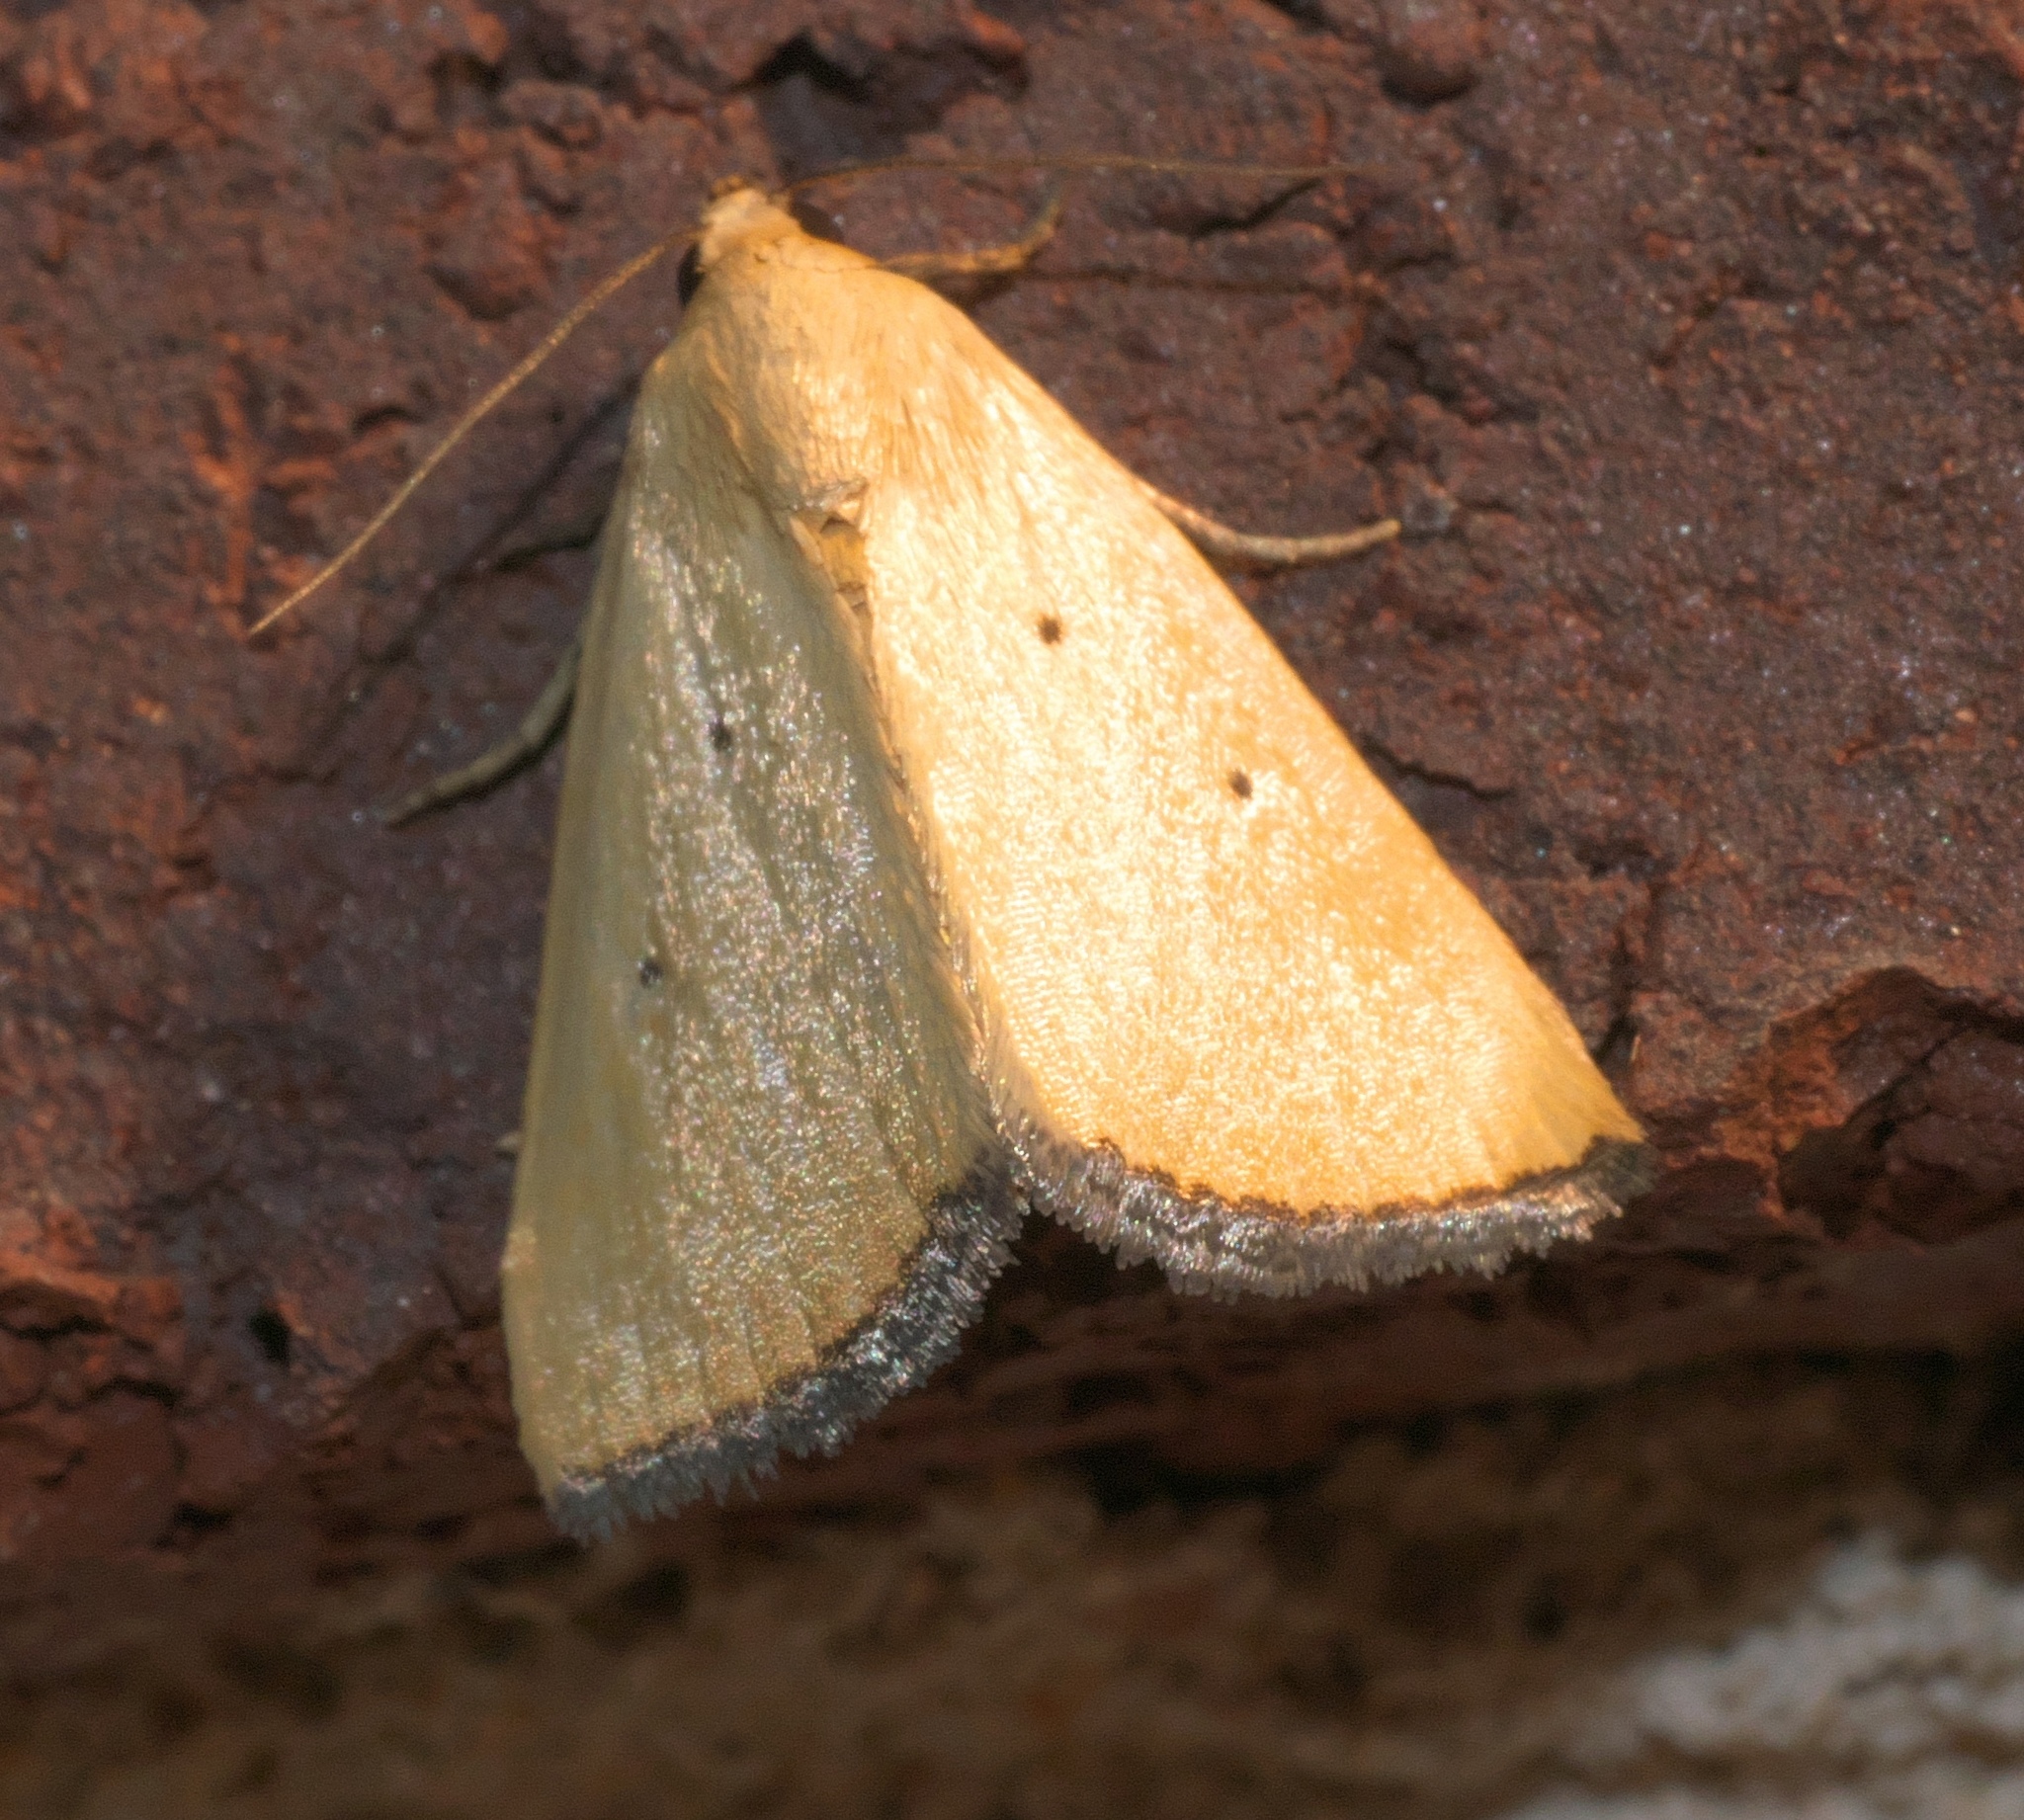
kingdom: Animalia
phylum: Arthropoda
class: Insecta
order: Lepidoptera
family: Noctuidae
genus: Marimatha
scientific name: Marimatha nigrofimbria
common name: Black-bordered lemon moth
